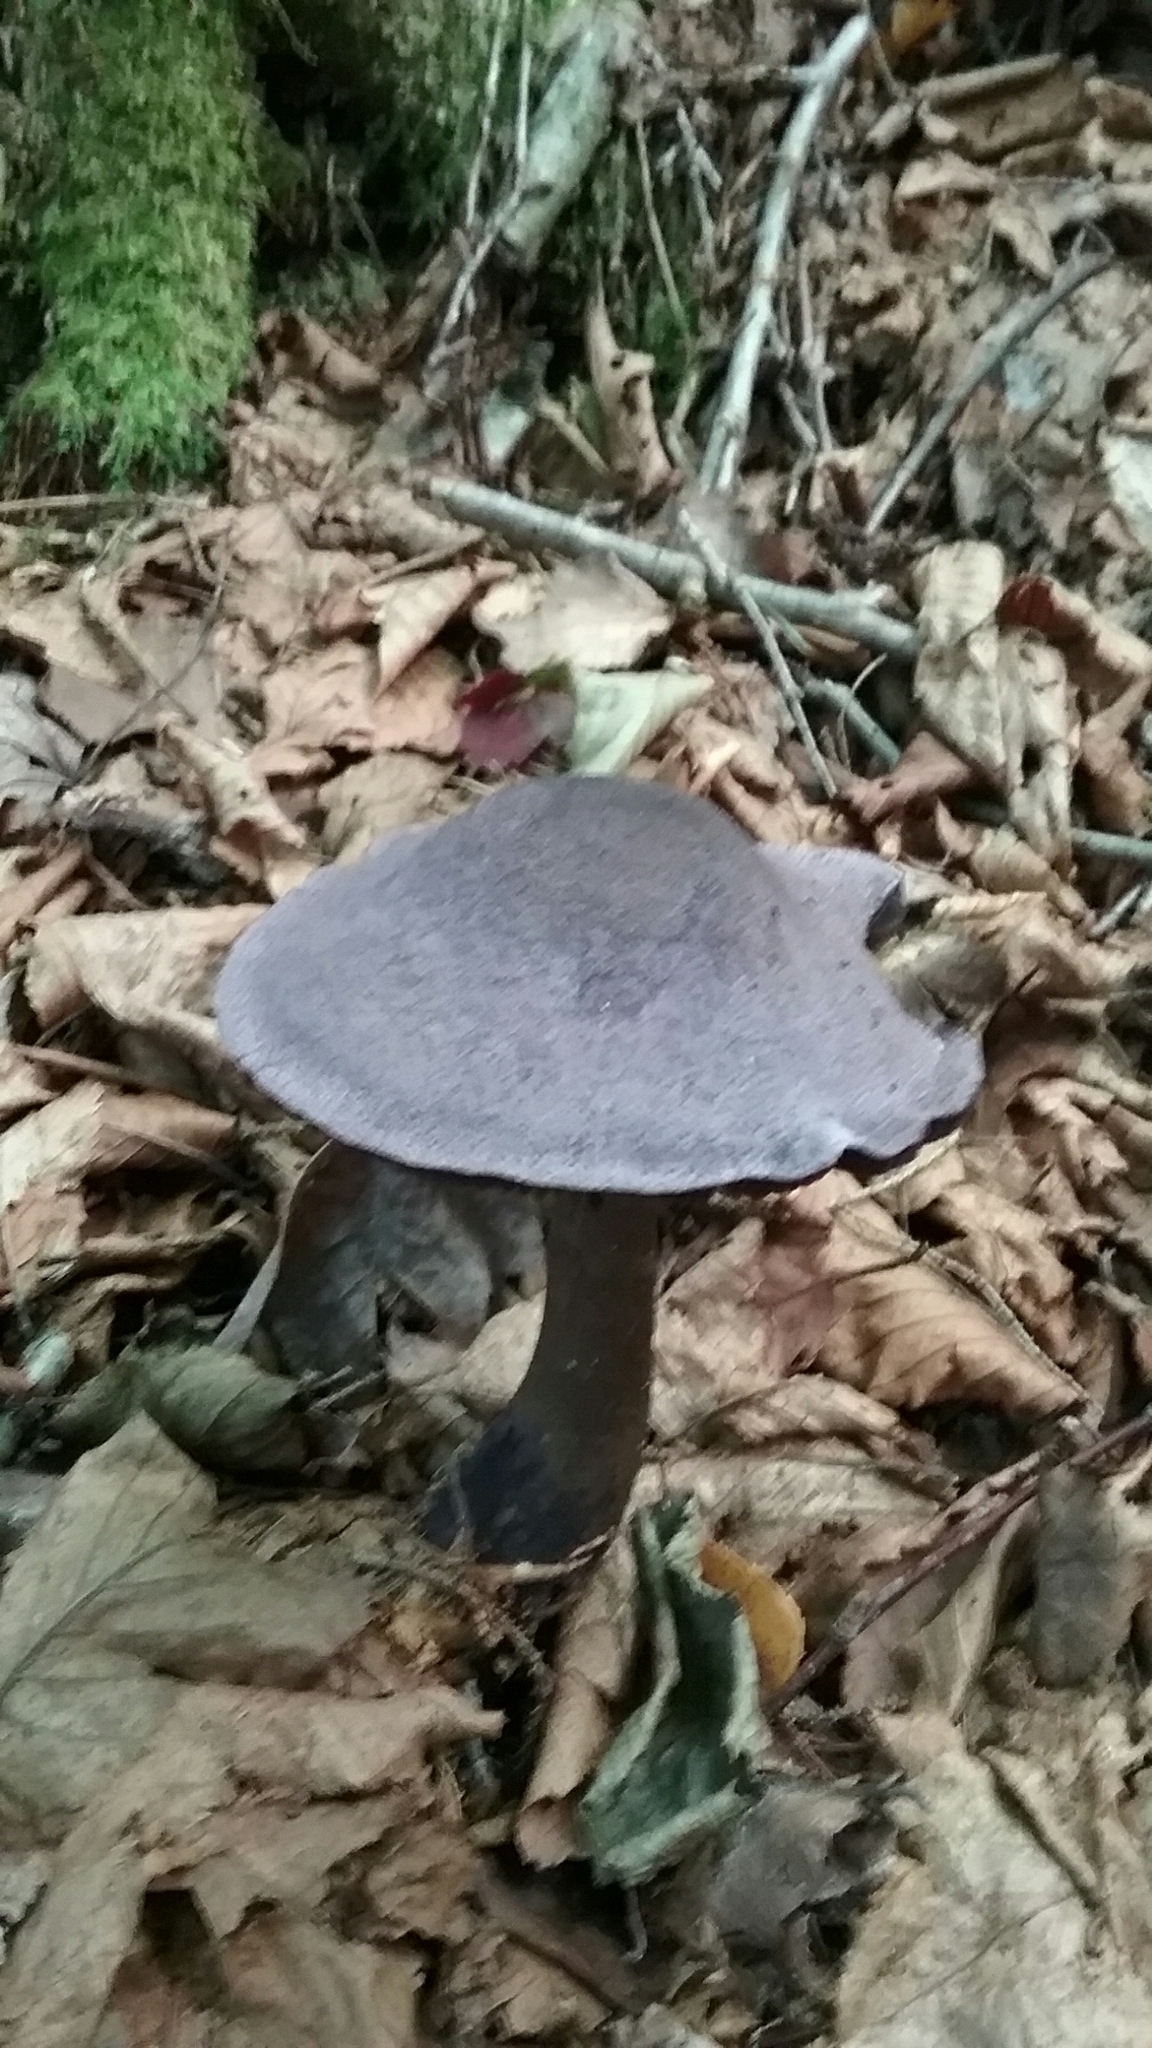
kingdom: Fungi
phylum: Basidiomycota
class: Agaricomycetes
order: Agaricales
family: Cortinariaceae
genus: Cortinarius
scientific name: Cortinarius violaceus
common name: Violet webcap
